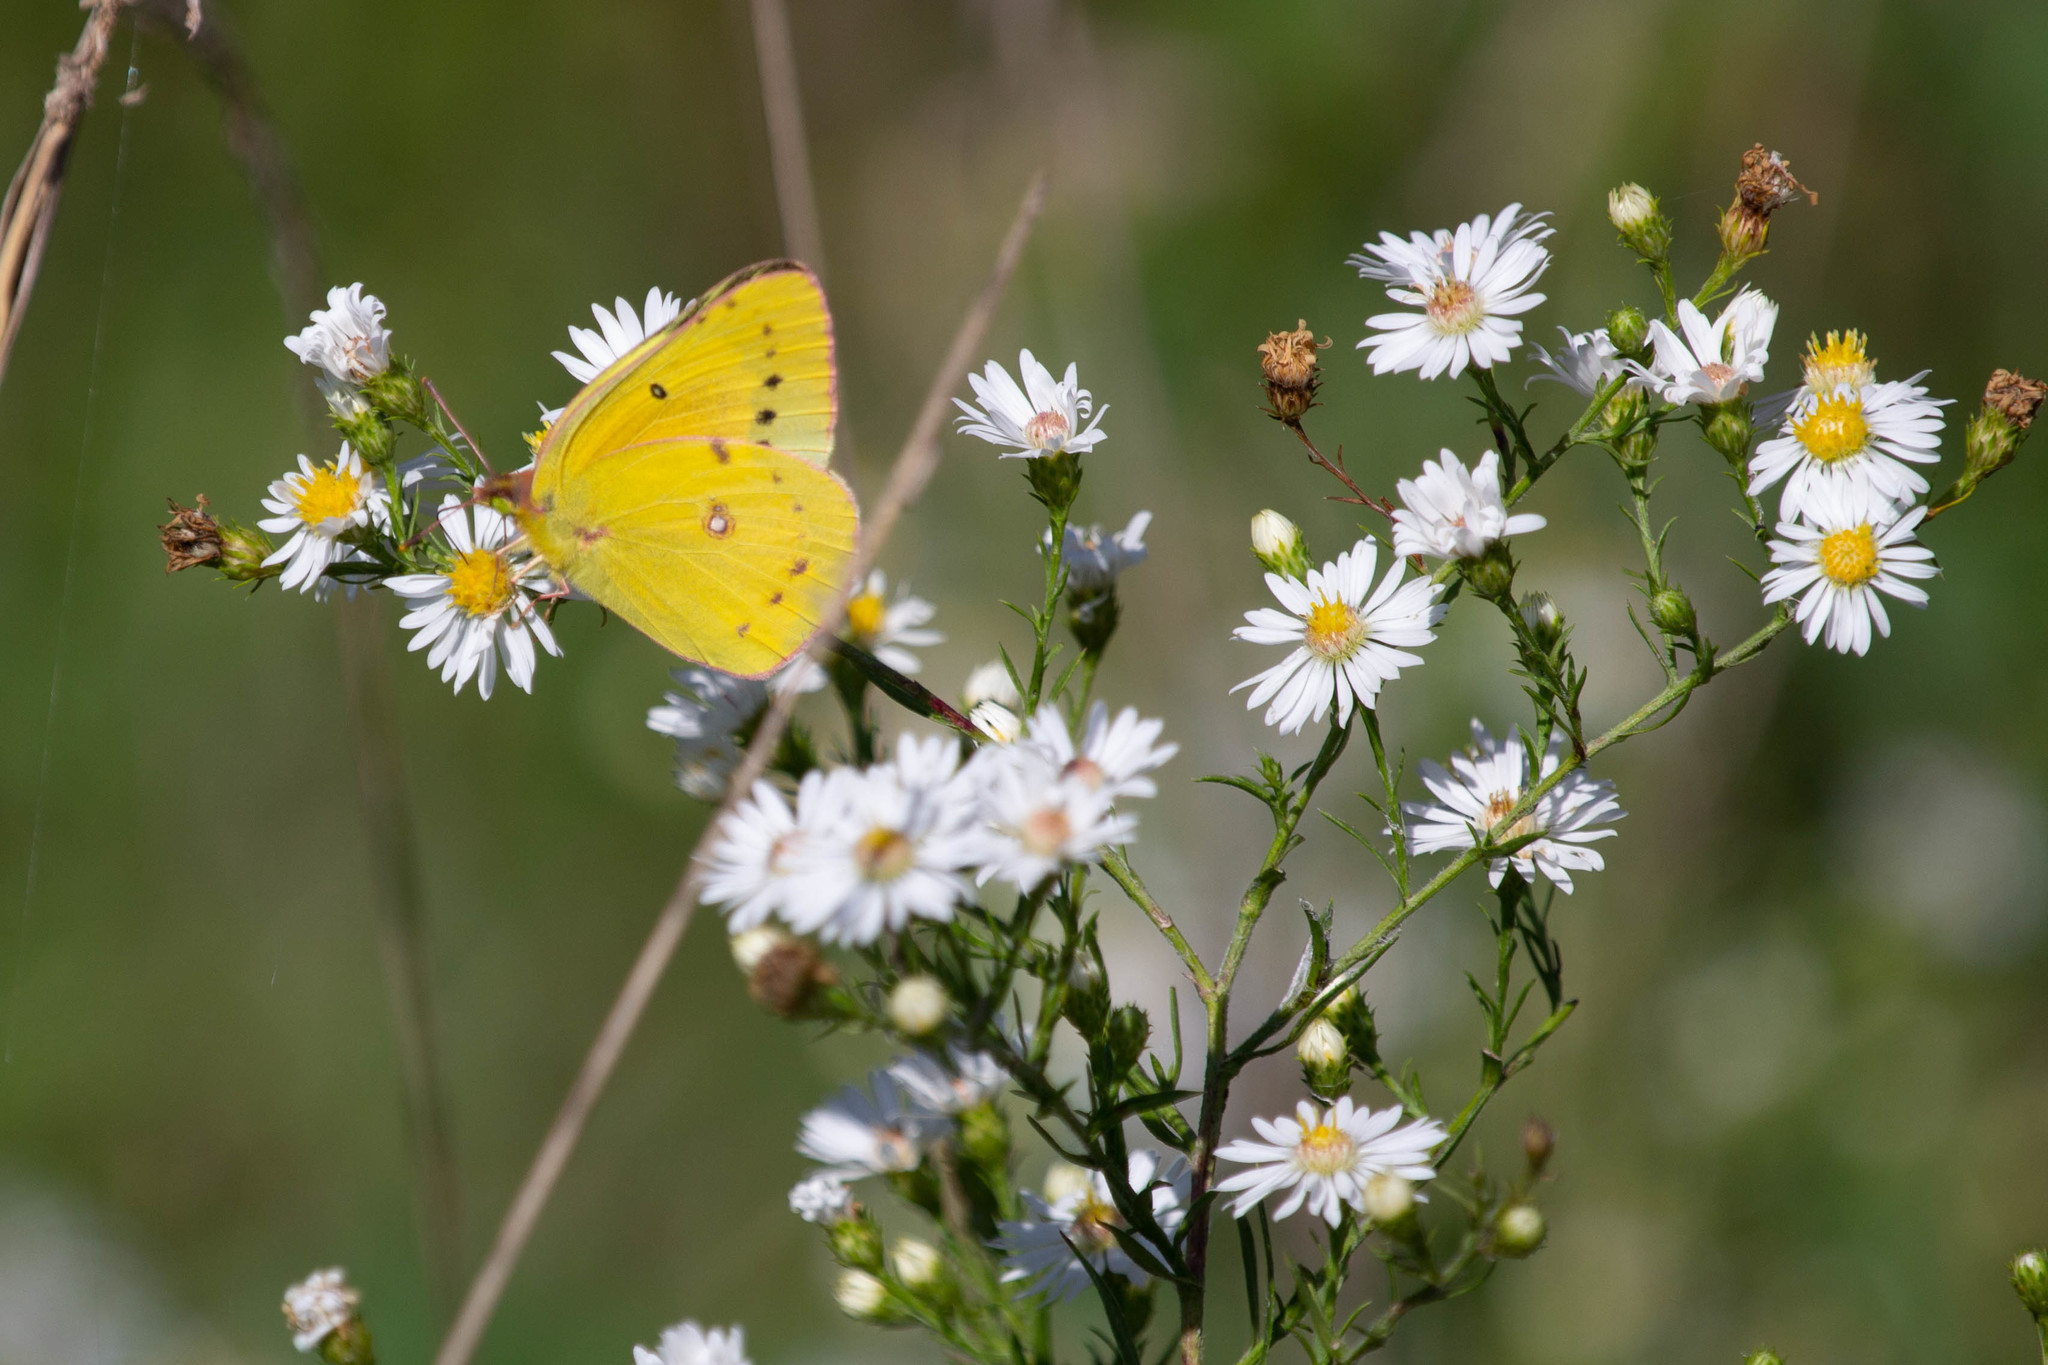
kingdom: Animalia
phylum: Arthropoda
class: Insecta
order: Lepidoptera
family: Pieridae
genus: Colias
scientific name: Colias eurytheme
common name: Alfalfa butterfly
